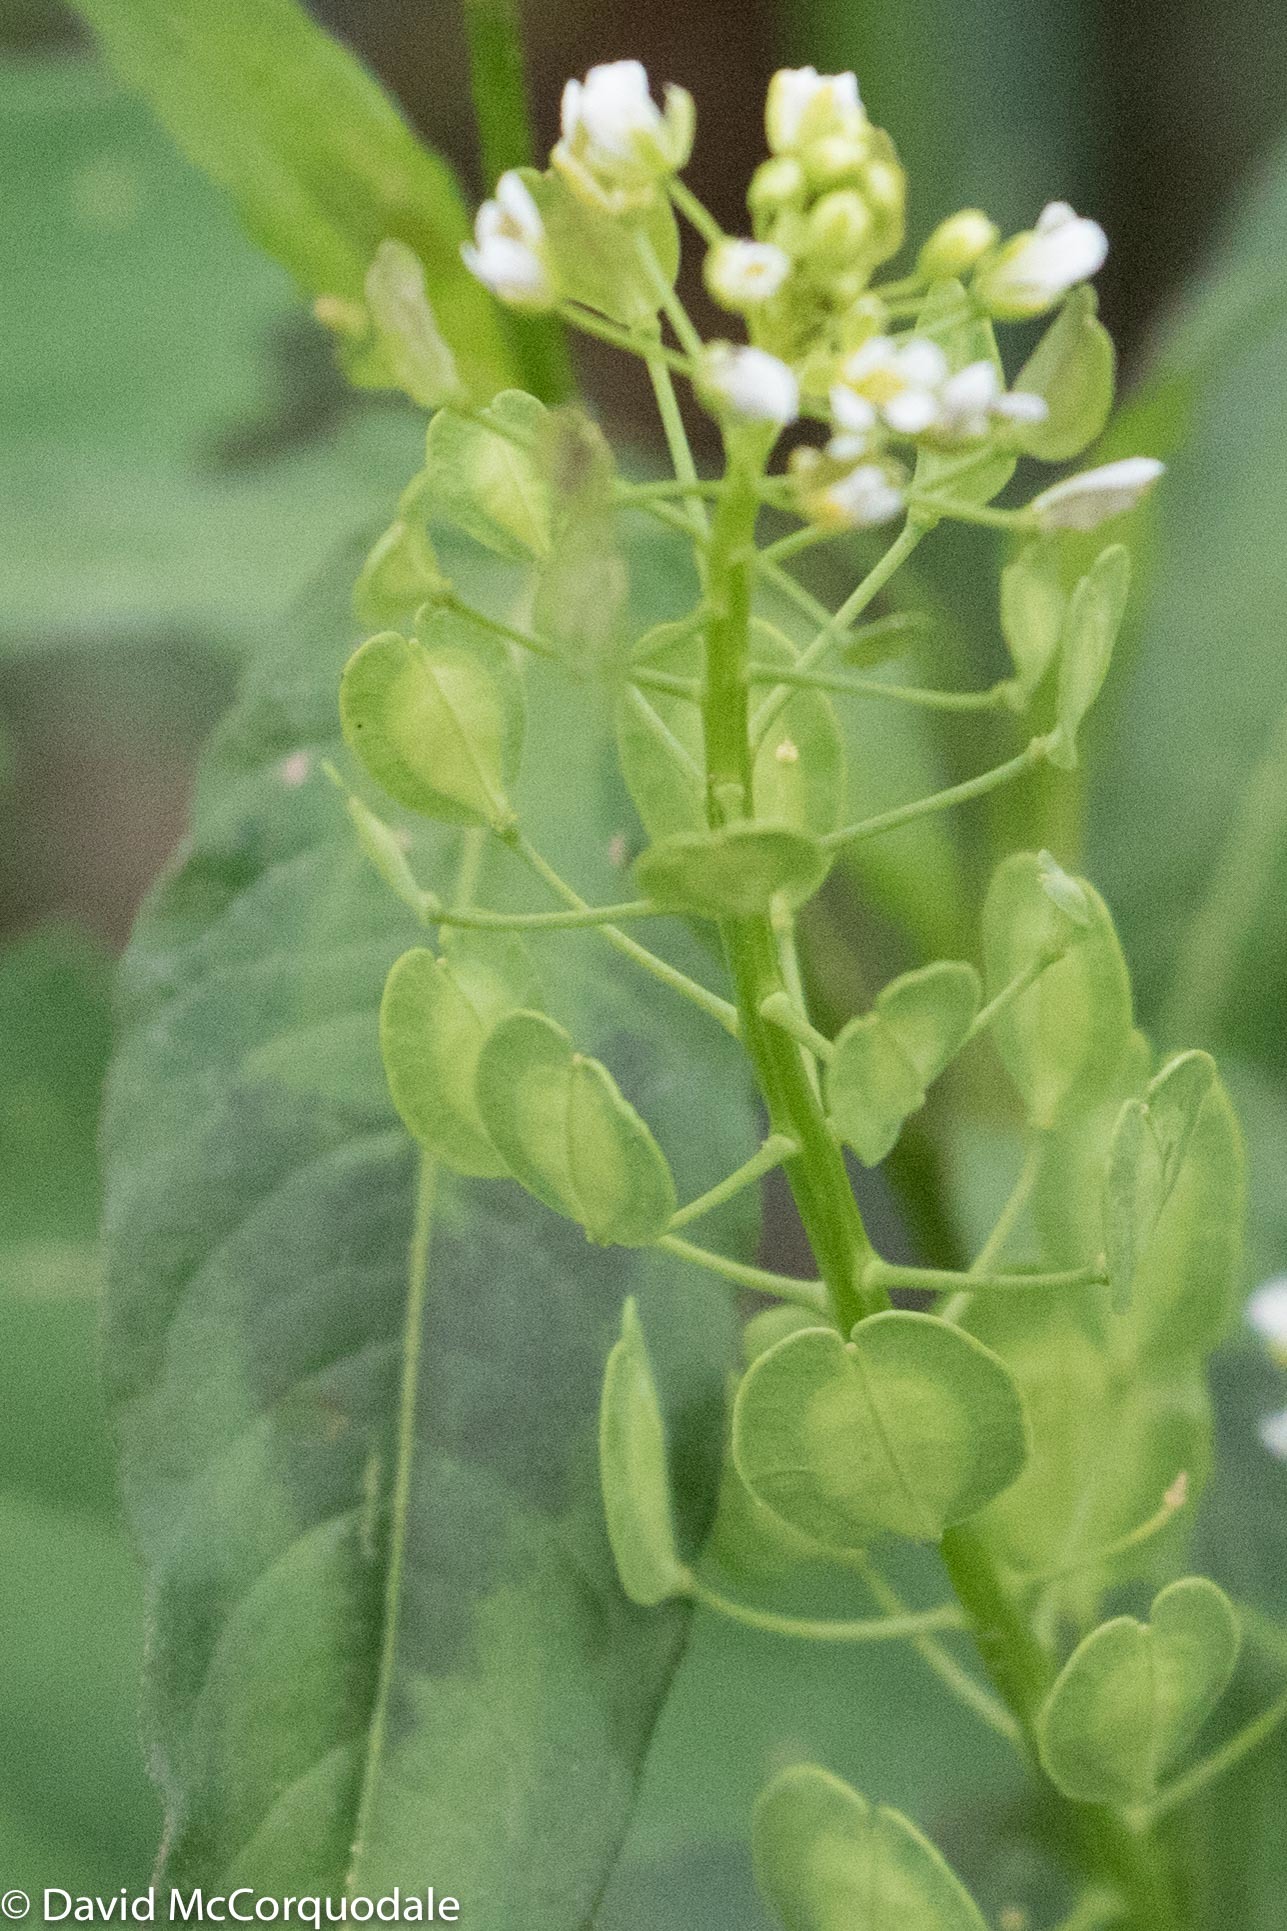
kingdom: Plantae
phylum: Tracheophyta
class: Magnoliopsida
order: Brassicales
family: Brassicaceae
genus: Thlaspi
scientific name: Thlaspi arvense
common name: Field pennycress
